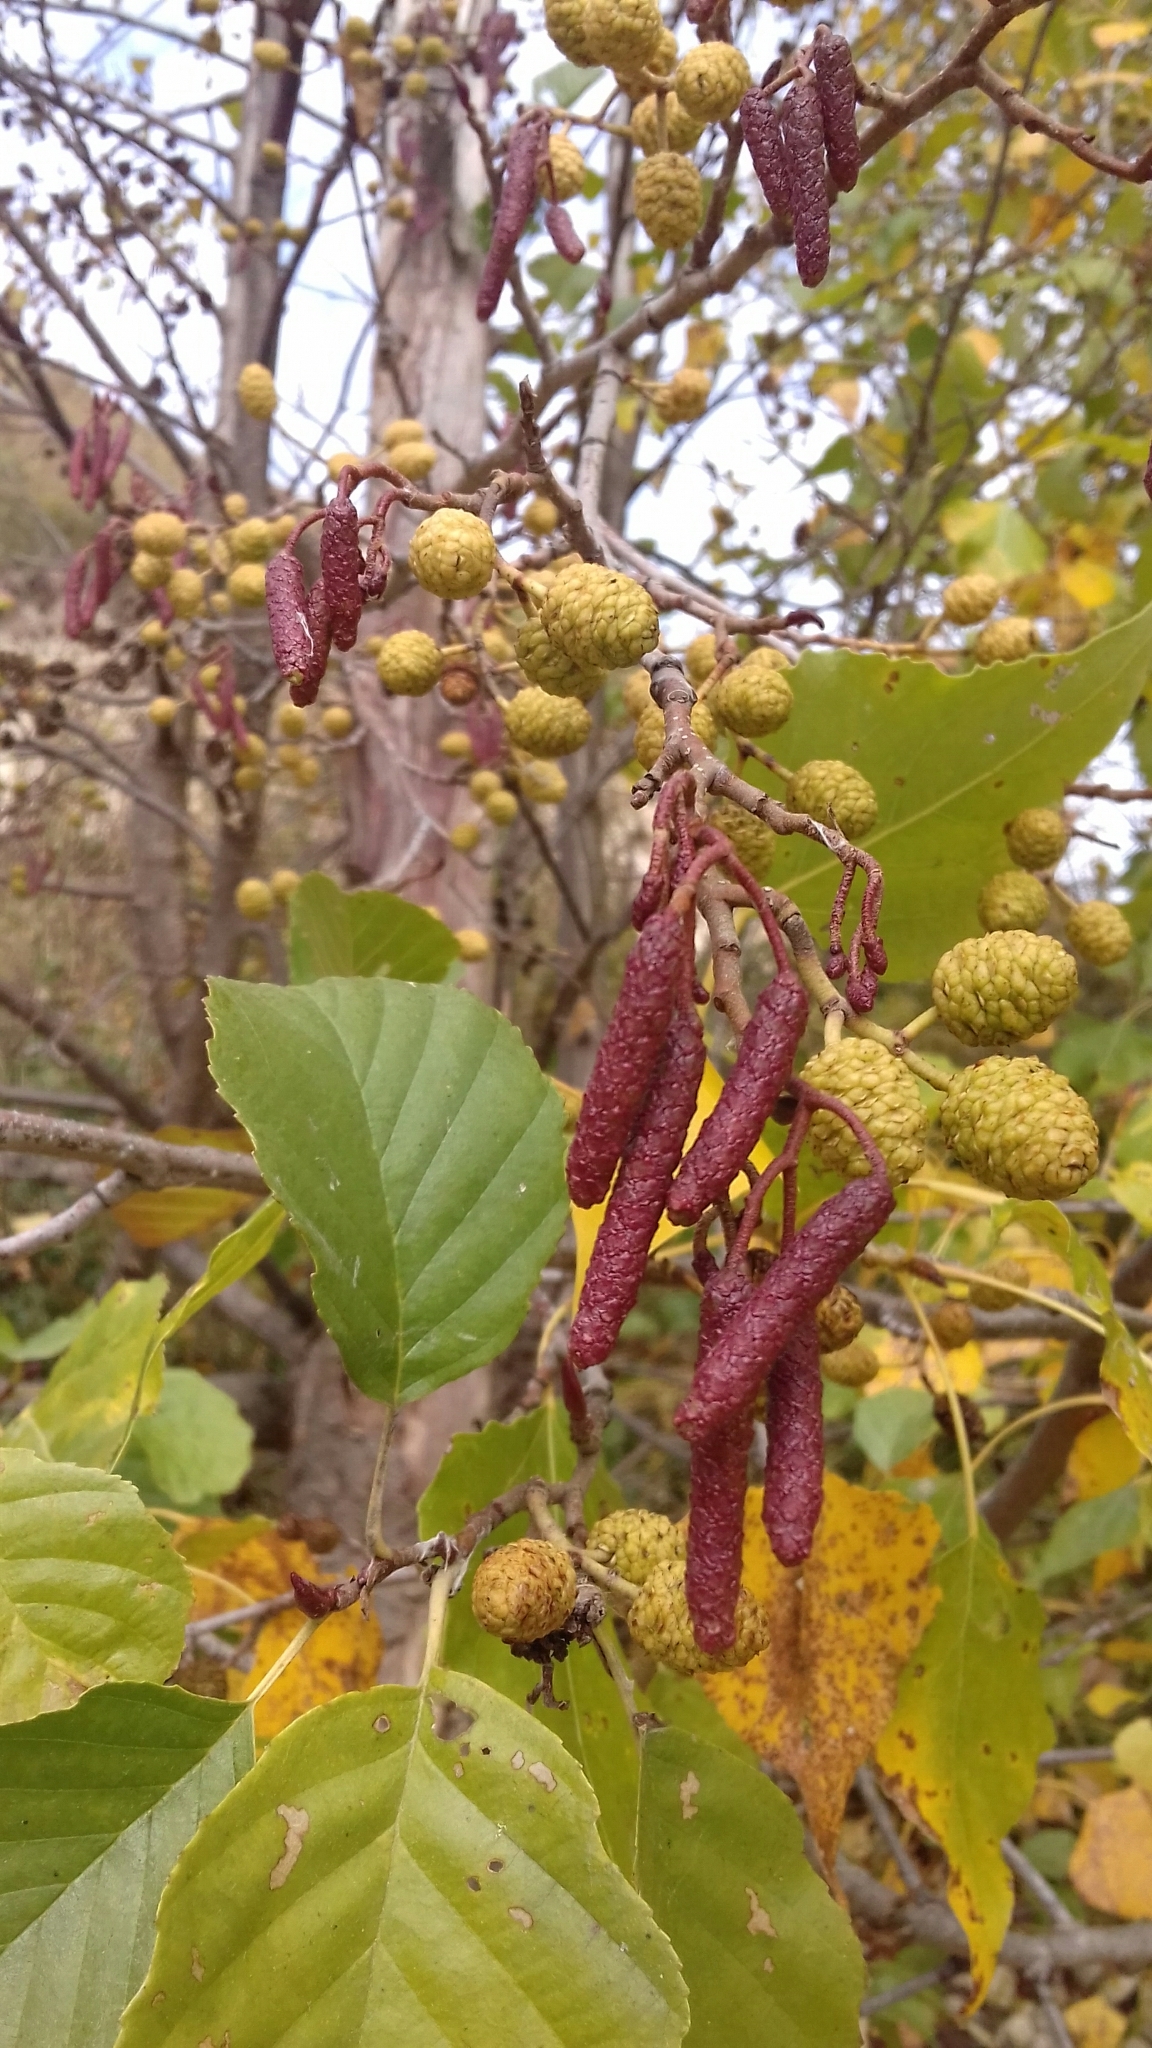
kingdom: Plantae
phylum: Tracheophyta
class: Magnoliopsida
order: Fagales
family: Betulaceae
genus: Alnus
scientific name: Alnus glutinosa
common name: Black alder
